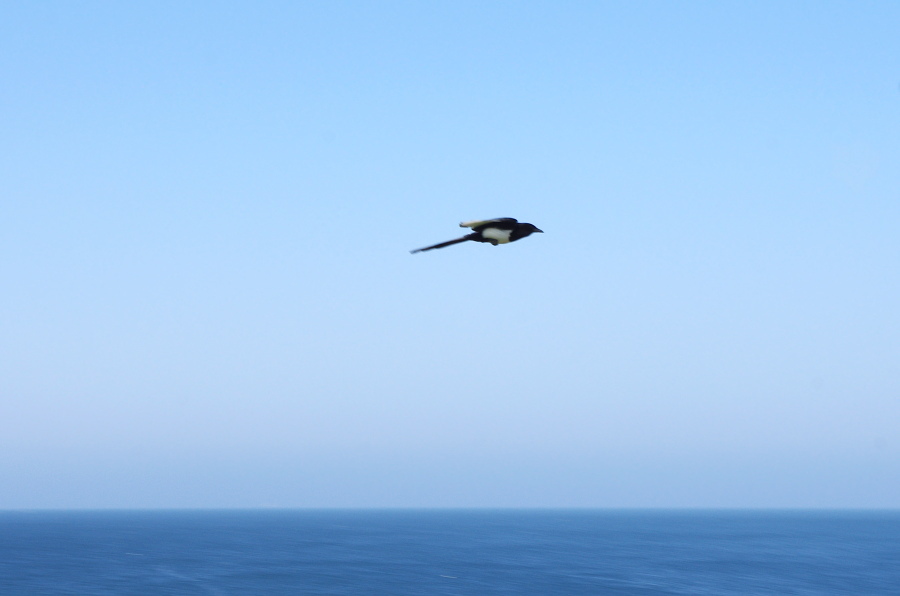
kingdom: Animalia
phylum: Chordata
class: Aves
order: Passeriformes
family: Corvidae
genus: Pica
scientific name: Pica serica
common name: Oriental magpie
